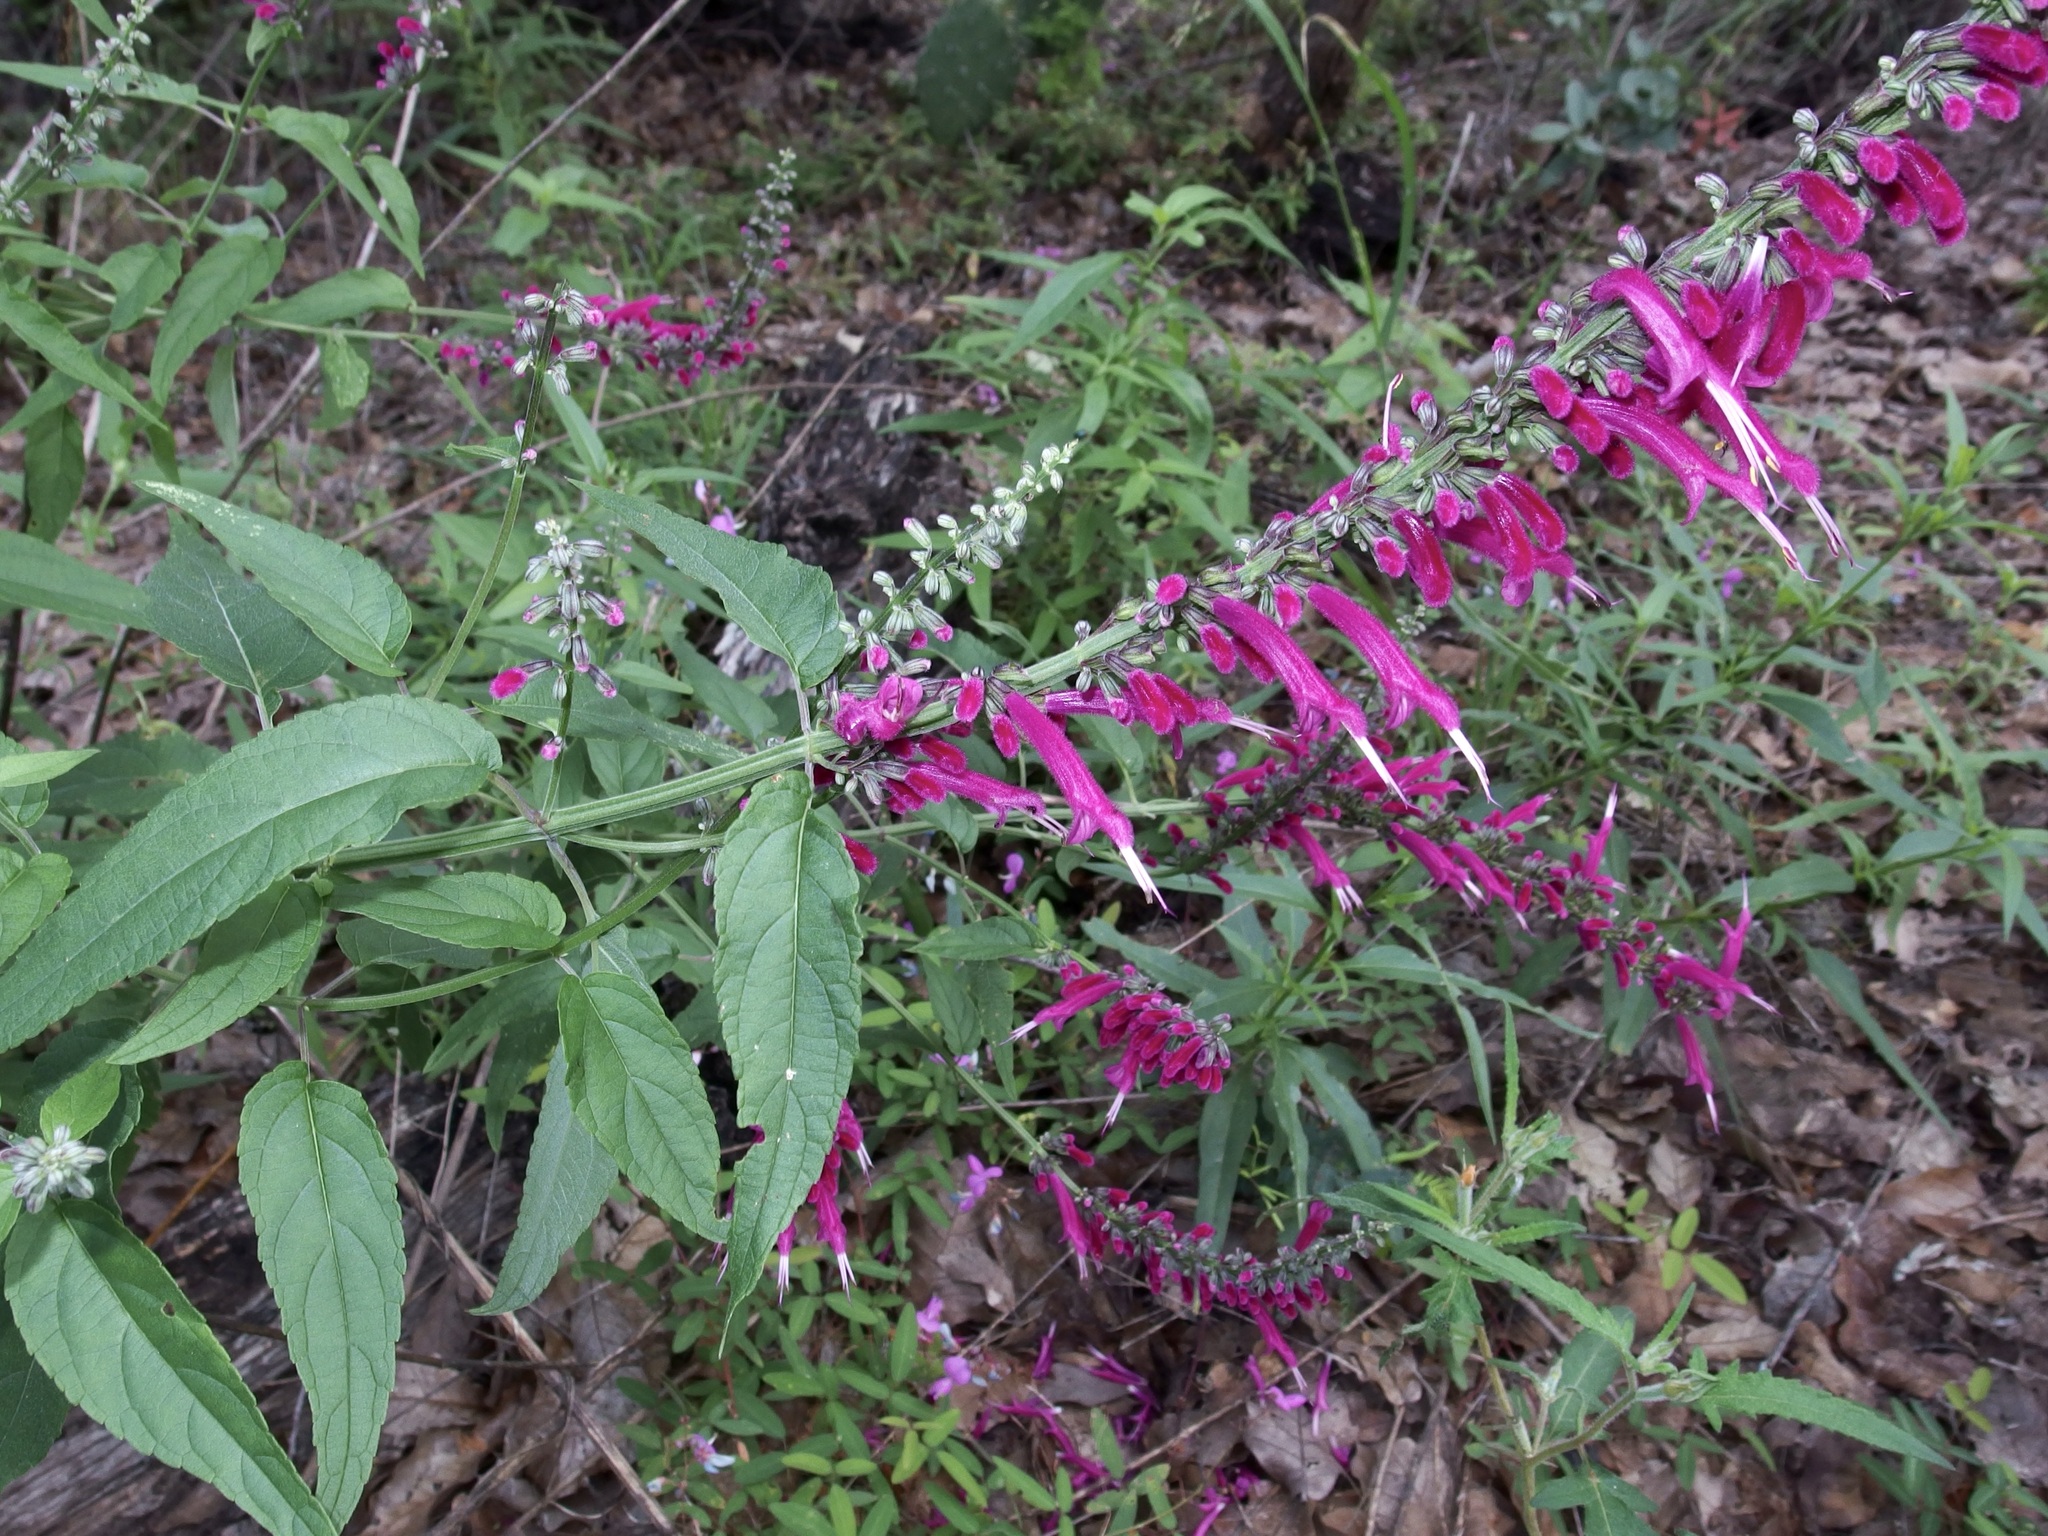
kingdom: Plantae
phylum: Tracheophyta
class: Magnoliopsida
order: Lamiales
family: Lamiaceae
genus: Salvia
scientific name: Salvia iodantha
